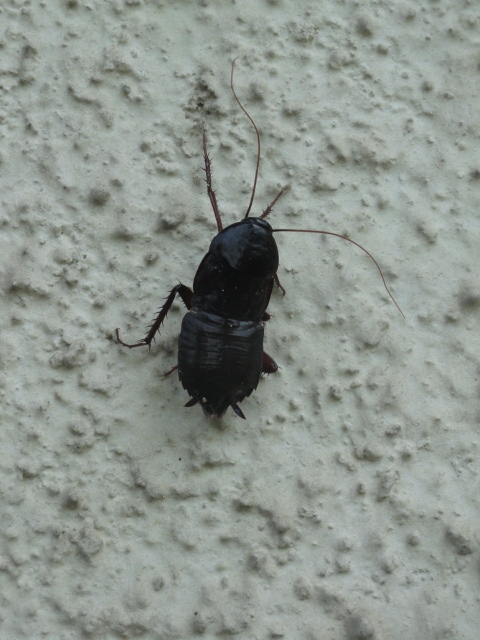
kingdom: Animalia
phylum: Arthropoda
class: Insecta
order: Blattodea
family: Blattidae
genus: Blatta
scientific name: Blatta orientalis
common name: Oriental cockroach
